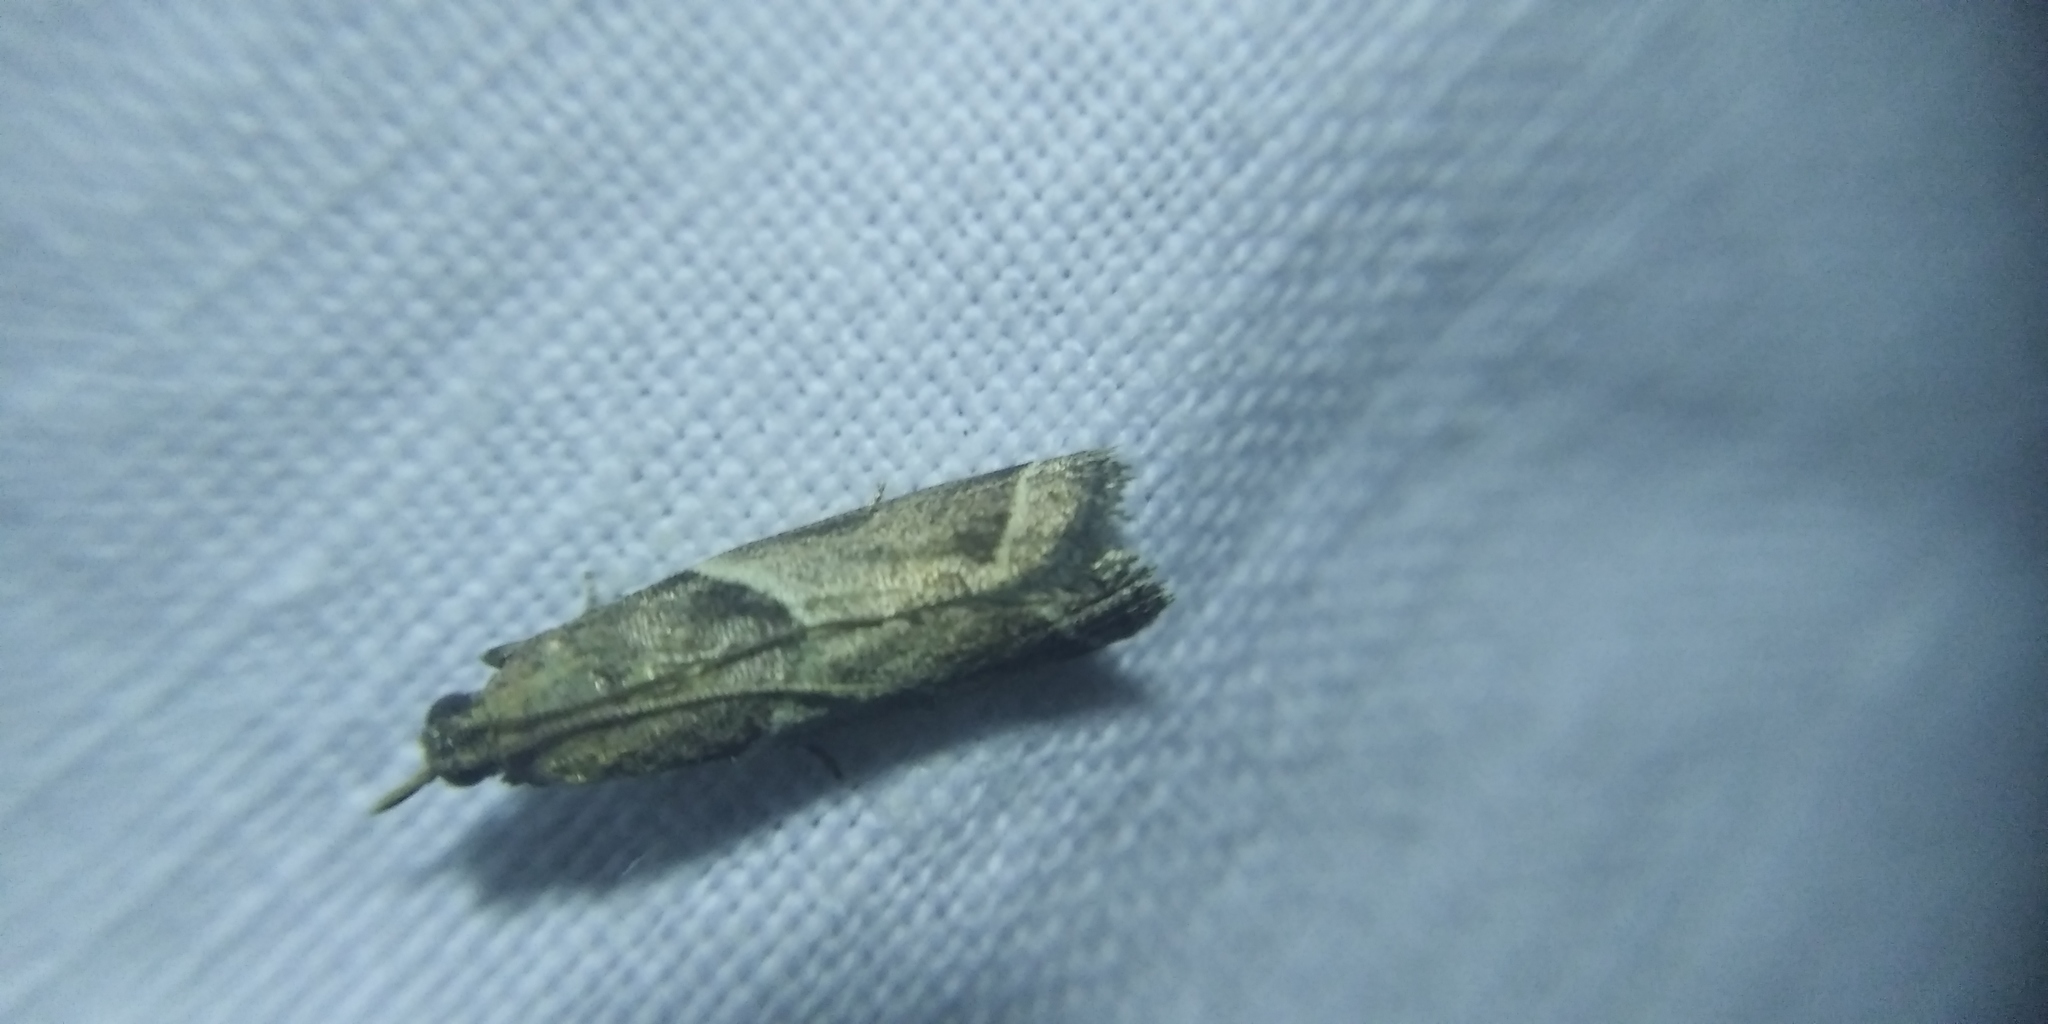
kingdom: Animalia
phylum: Arthropoda
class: Insecta
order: Lepidoptera
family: Pyralidae
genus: Nyctegretis
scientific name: Nyctegretis lineana
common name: Agate knot-horn
